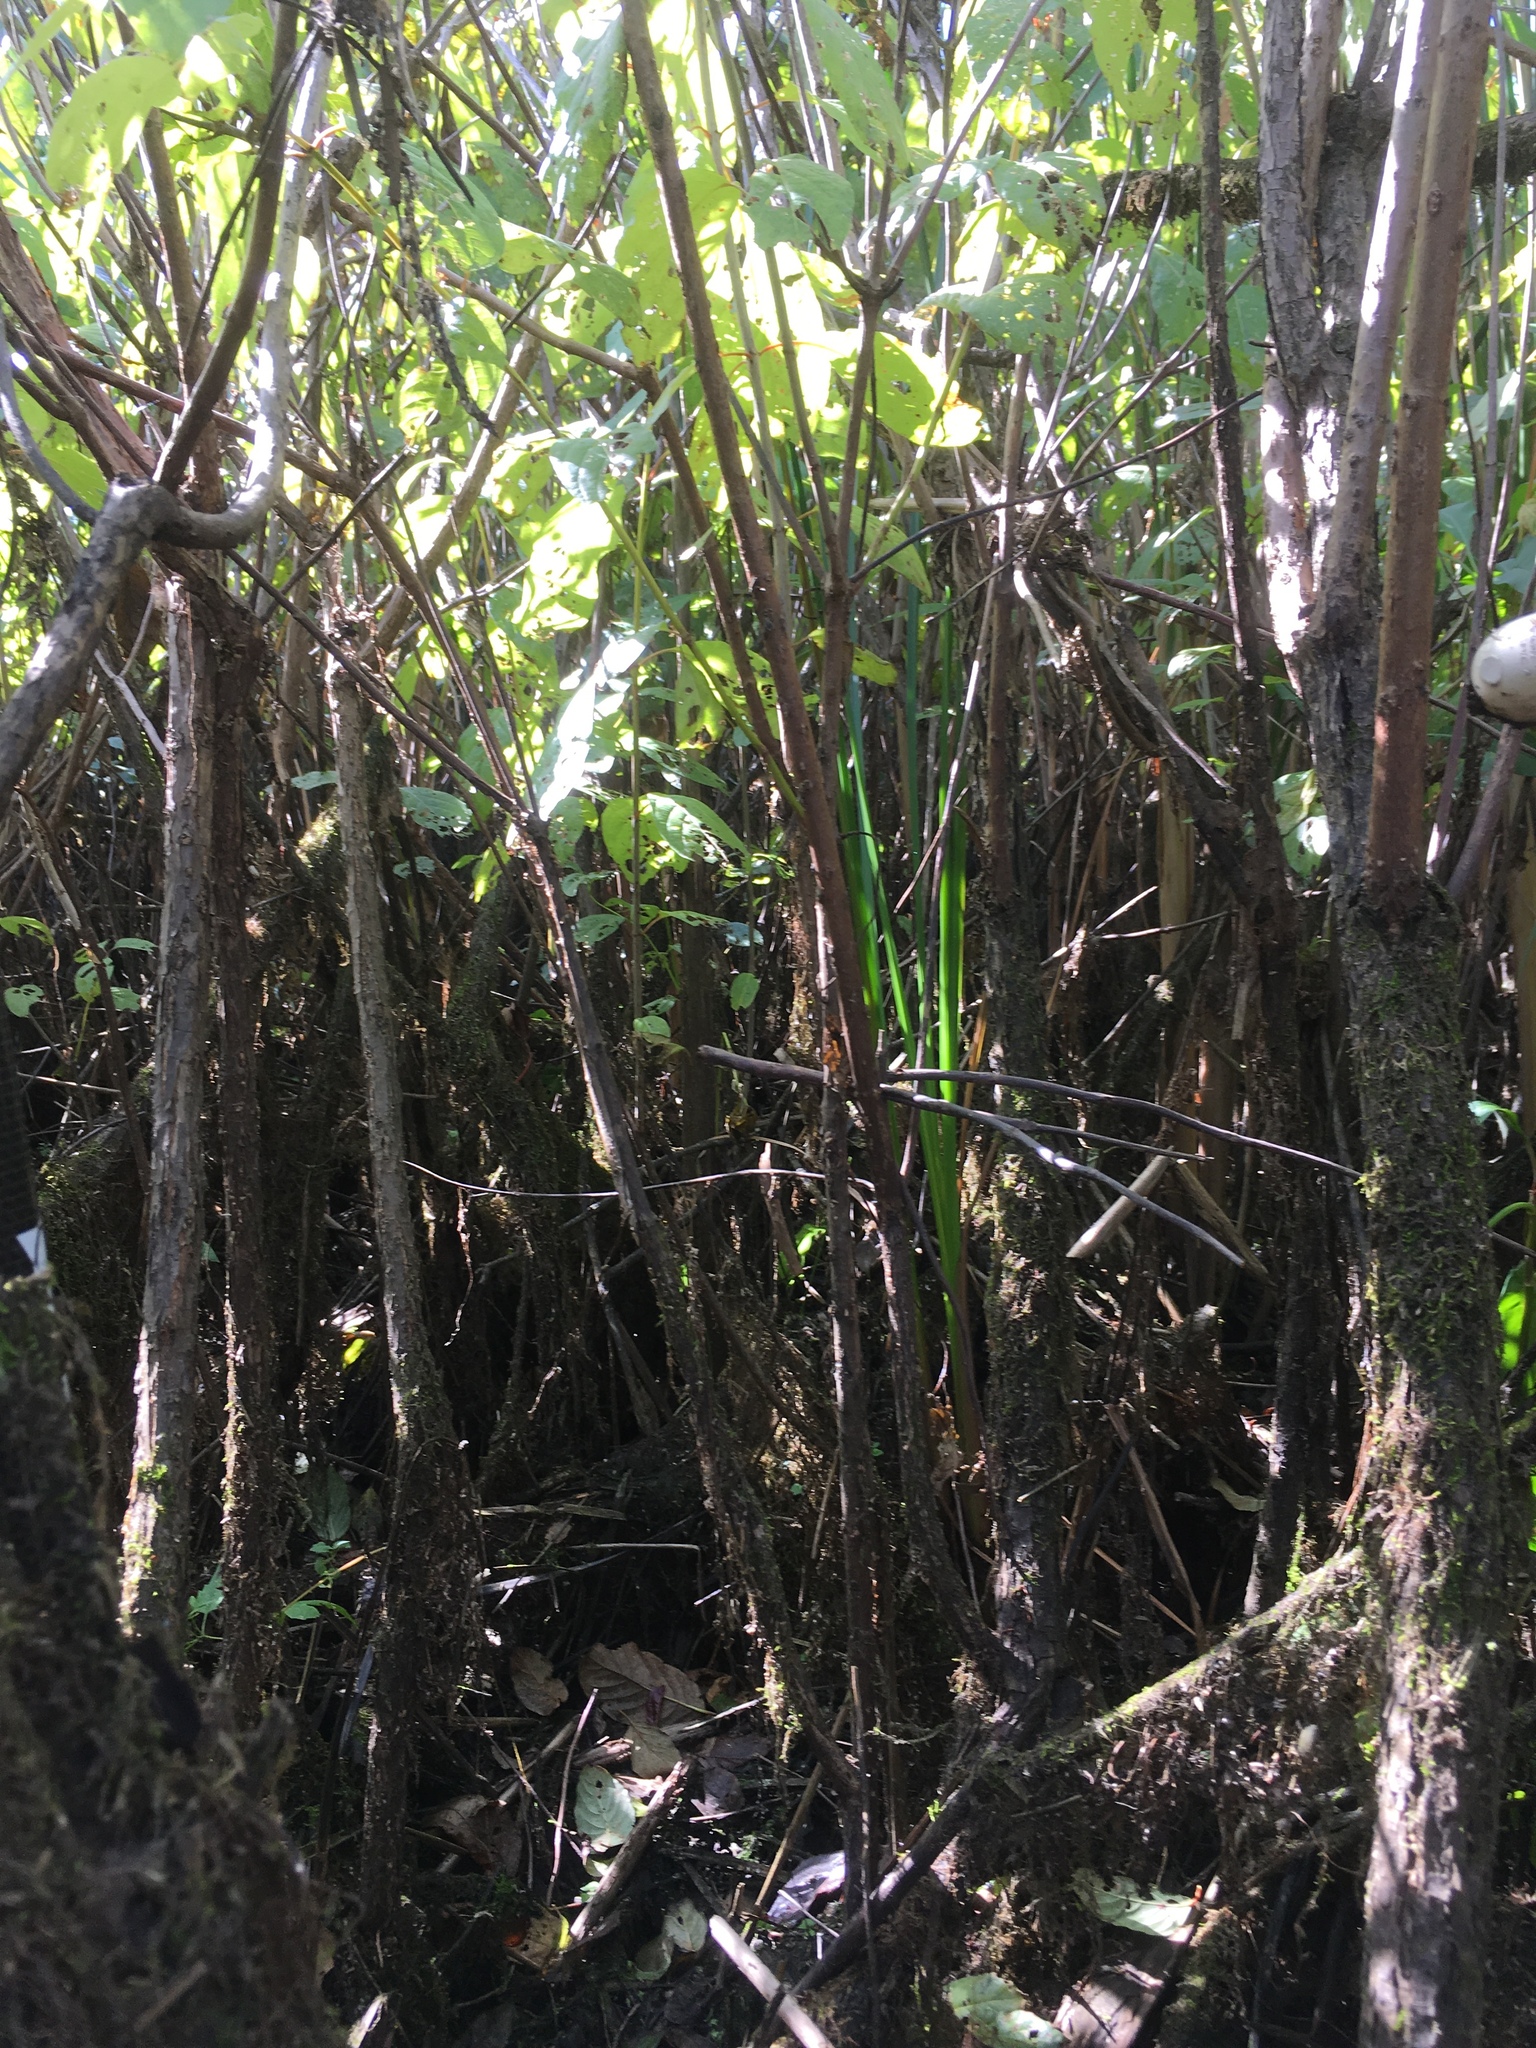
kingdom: Plantae
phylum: Tracheophyta
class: Magnoliopsida
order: Gentianales
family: Rubiaceae
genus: Cephalanthus
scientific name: Cephalanthus occidentalis
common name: Button-willow
